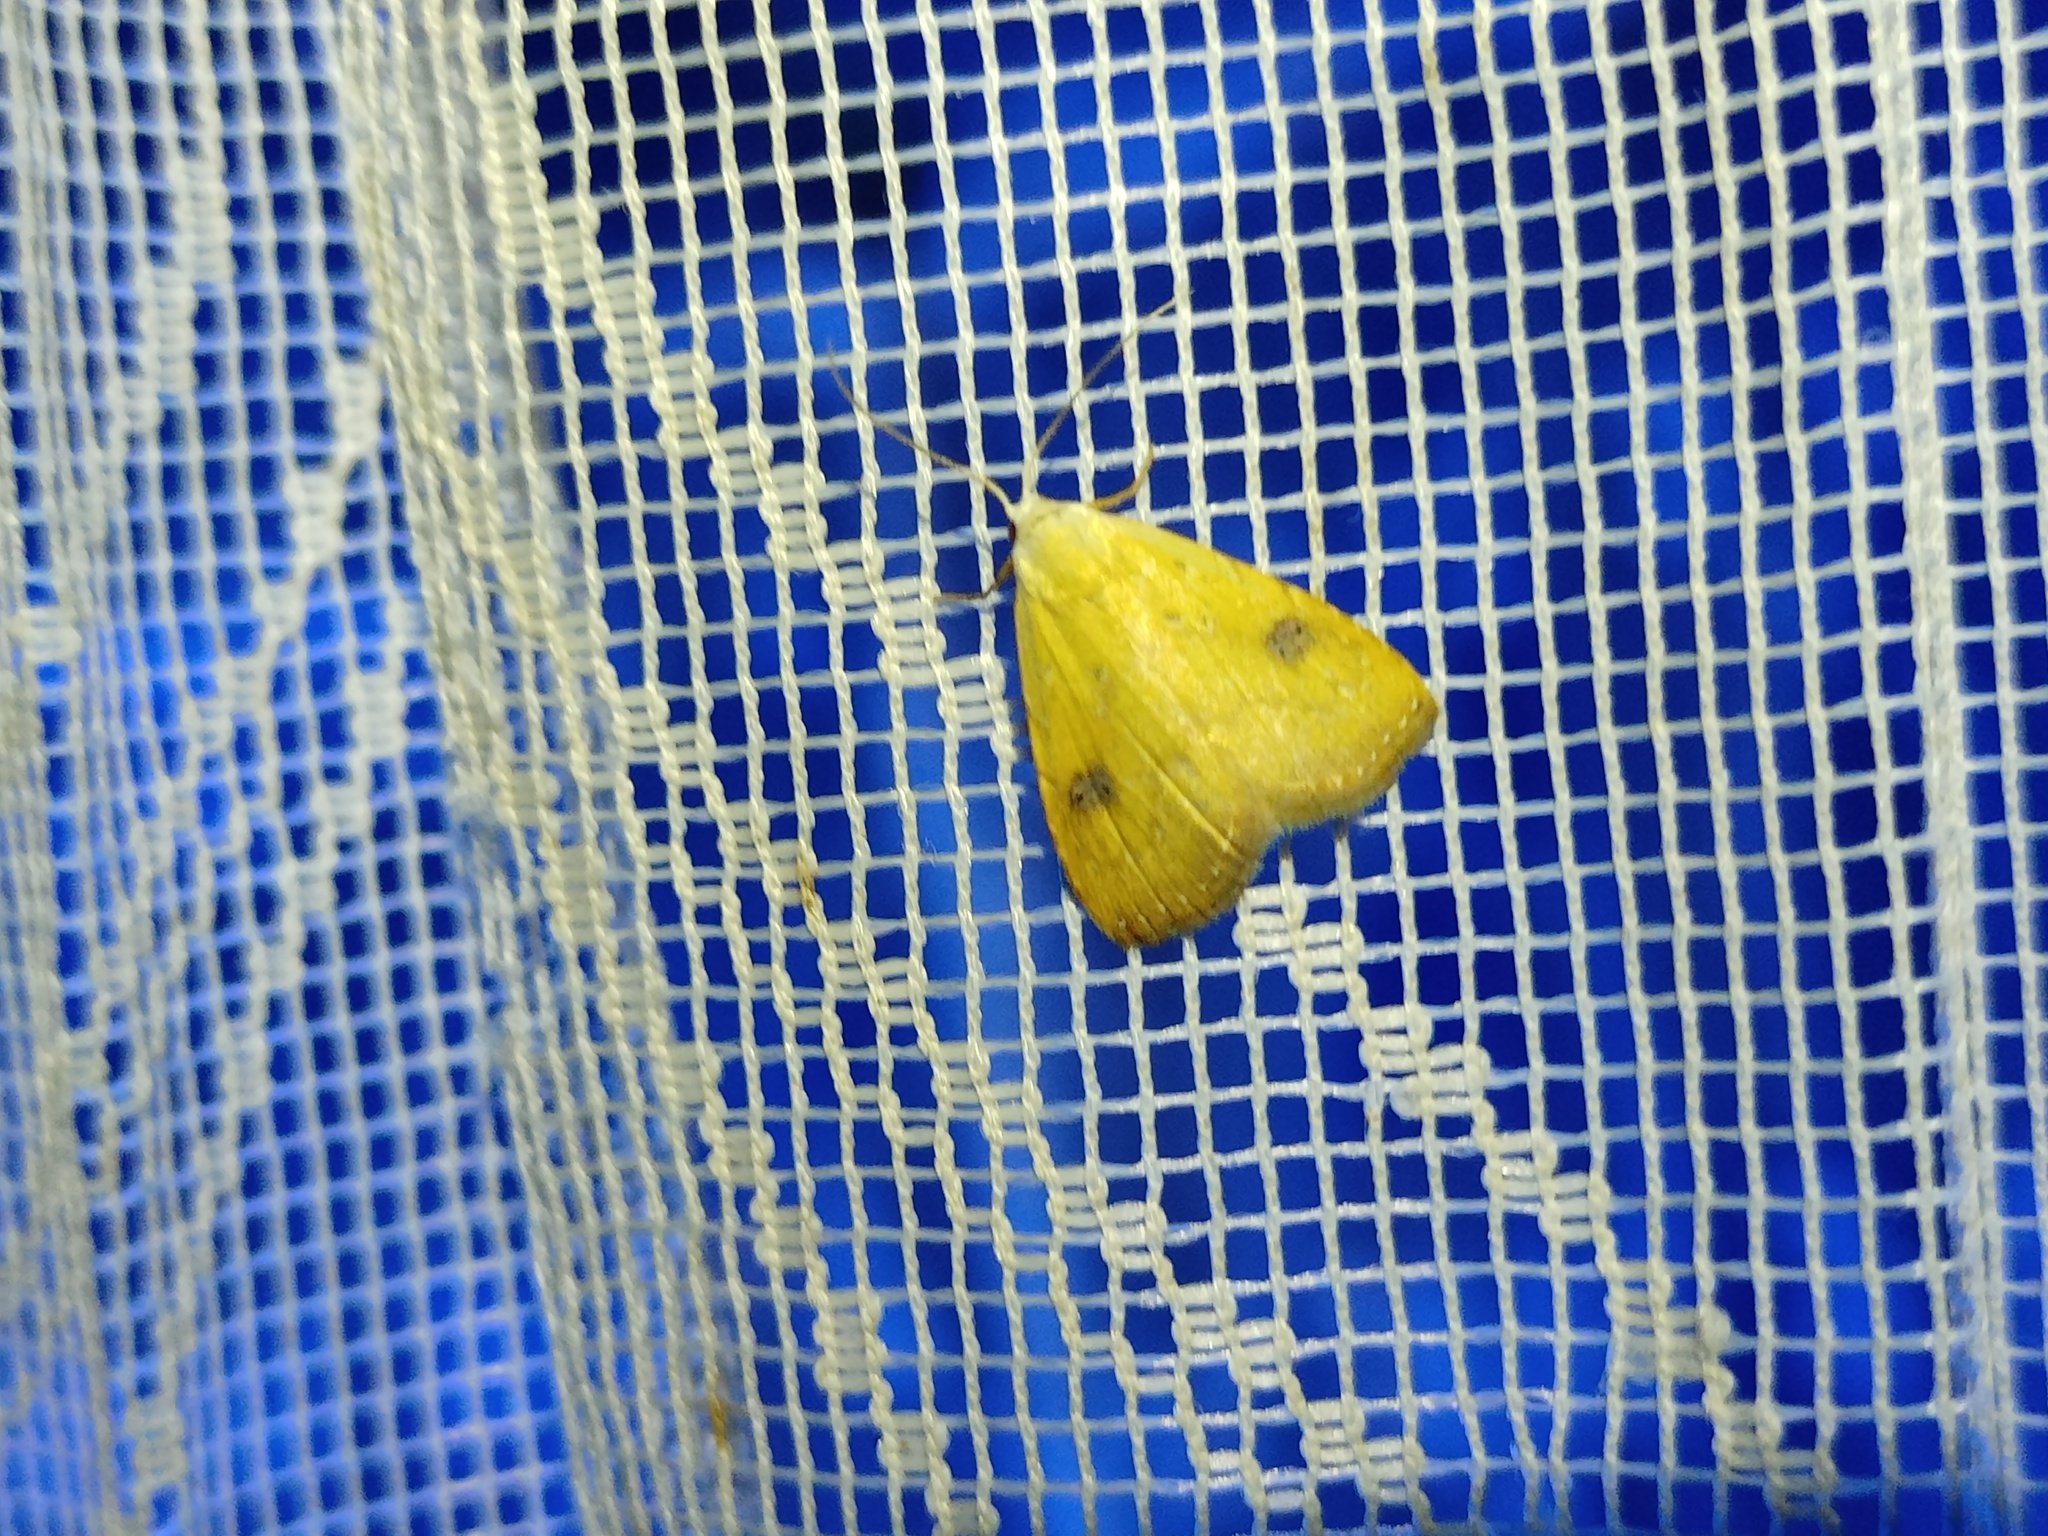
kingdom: Animalia
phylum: Arthropoda
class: Insecta
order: Lepidoptera
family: Erebidae
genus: Rivula
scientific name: Rivula sericealis
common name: Straw dot
